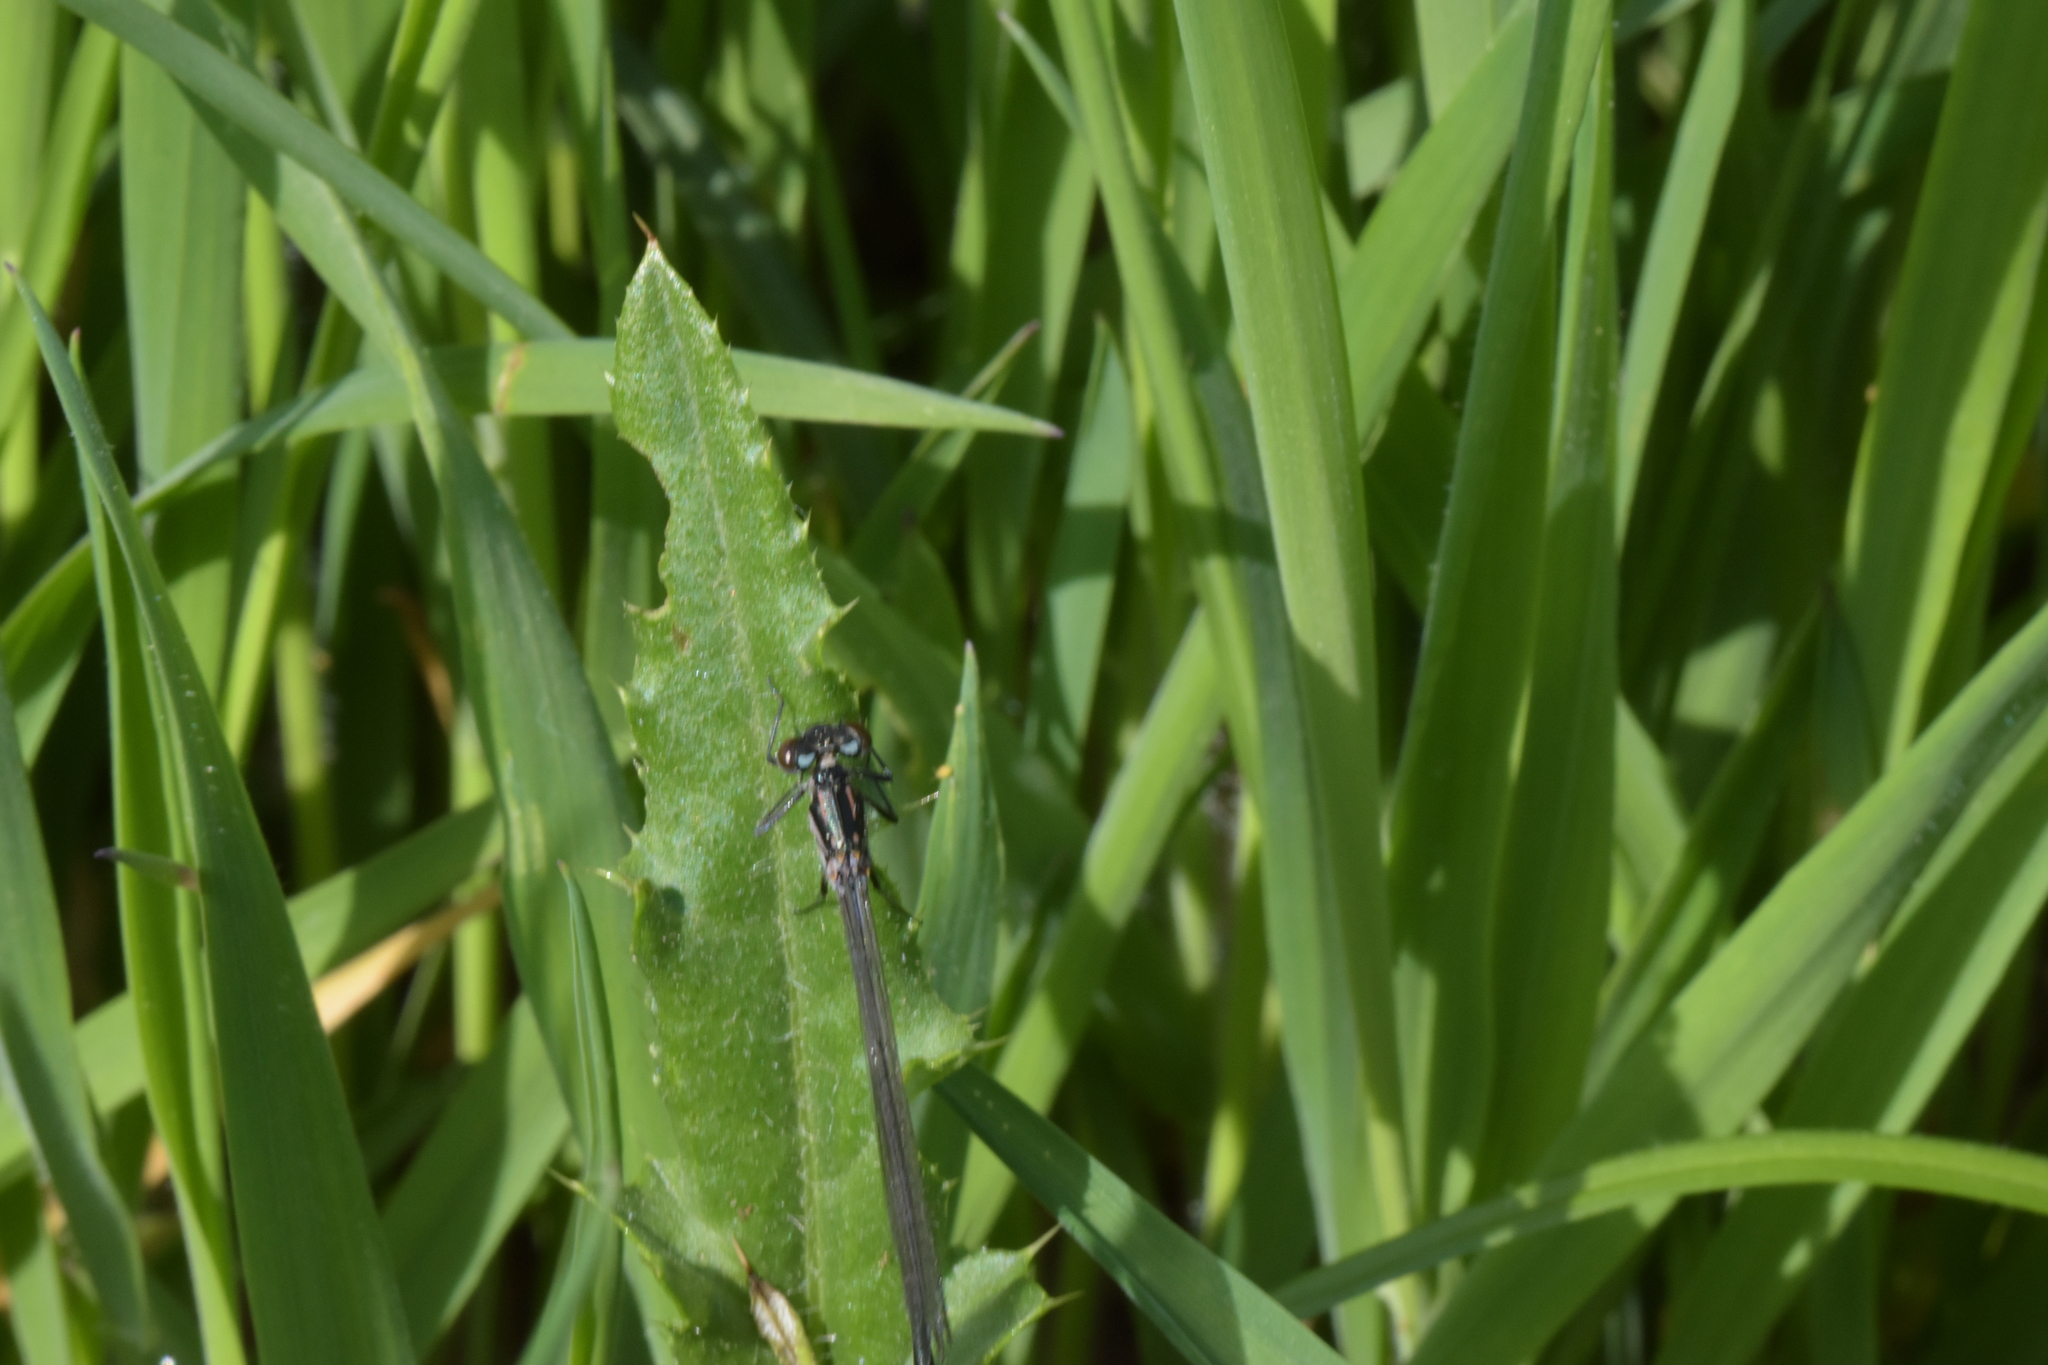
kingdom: Animalia
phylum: Arthropoda
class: Insecta
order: Odonata
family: Coenagrionidae
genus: Coenagrion
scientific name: Coenagrion pulchellum
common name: Variable bluet
